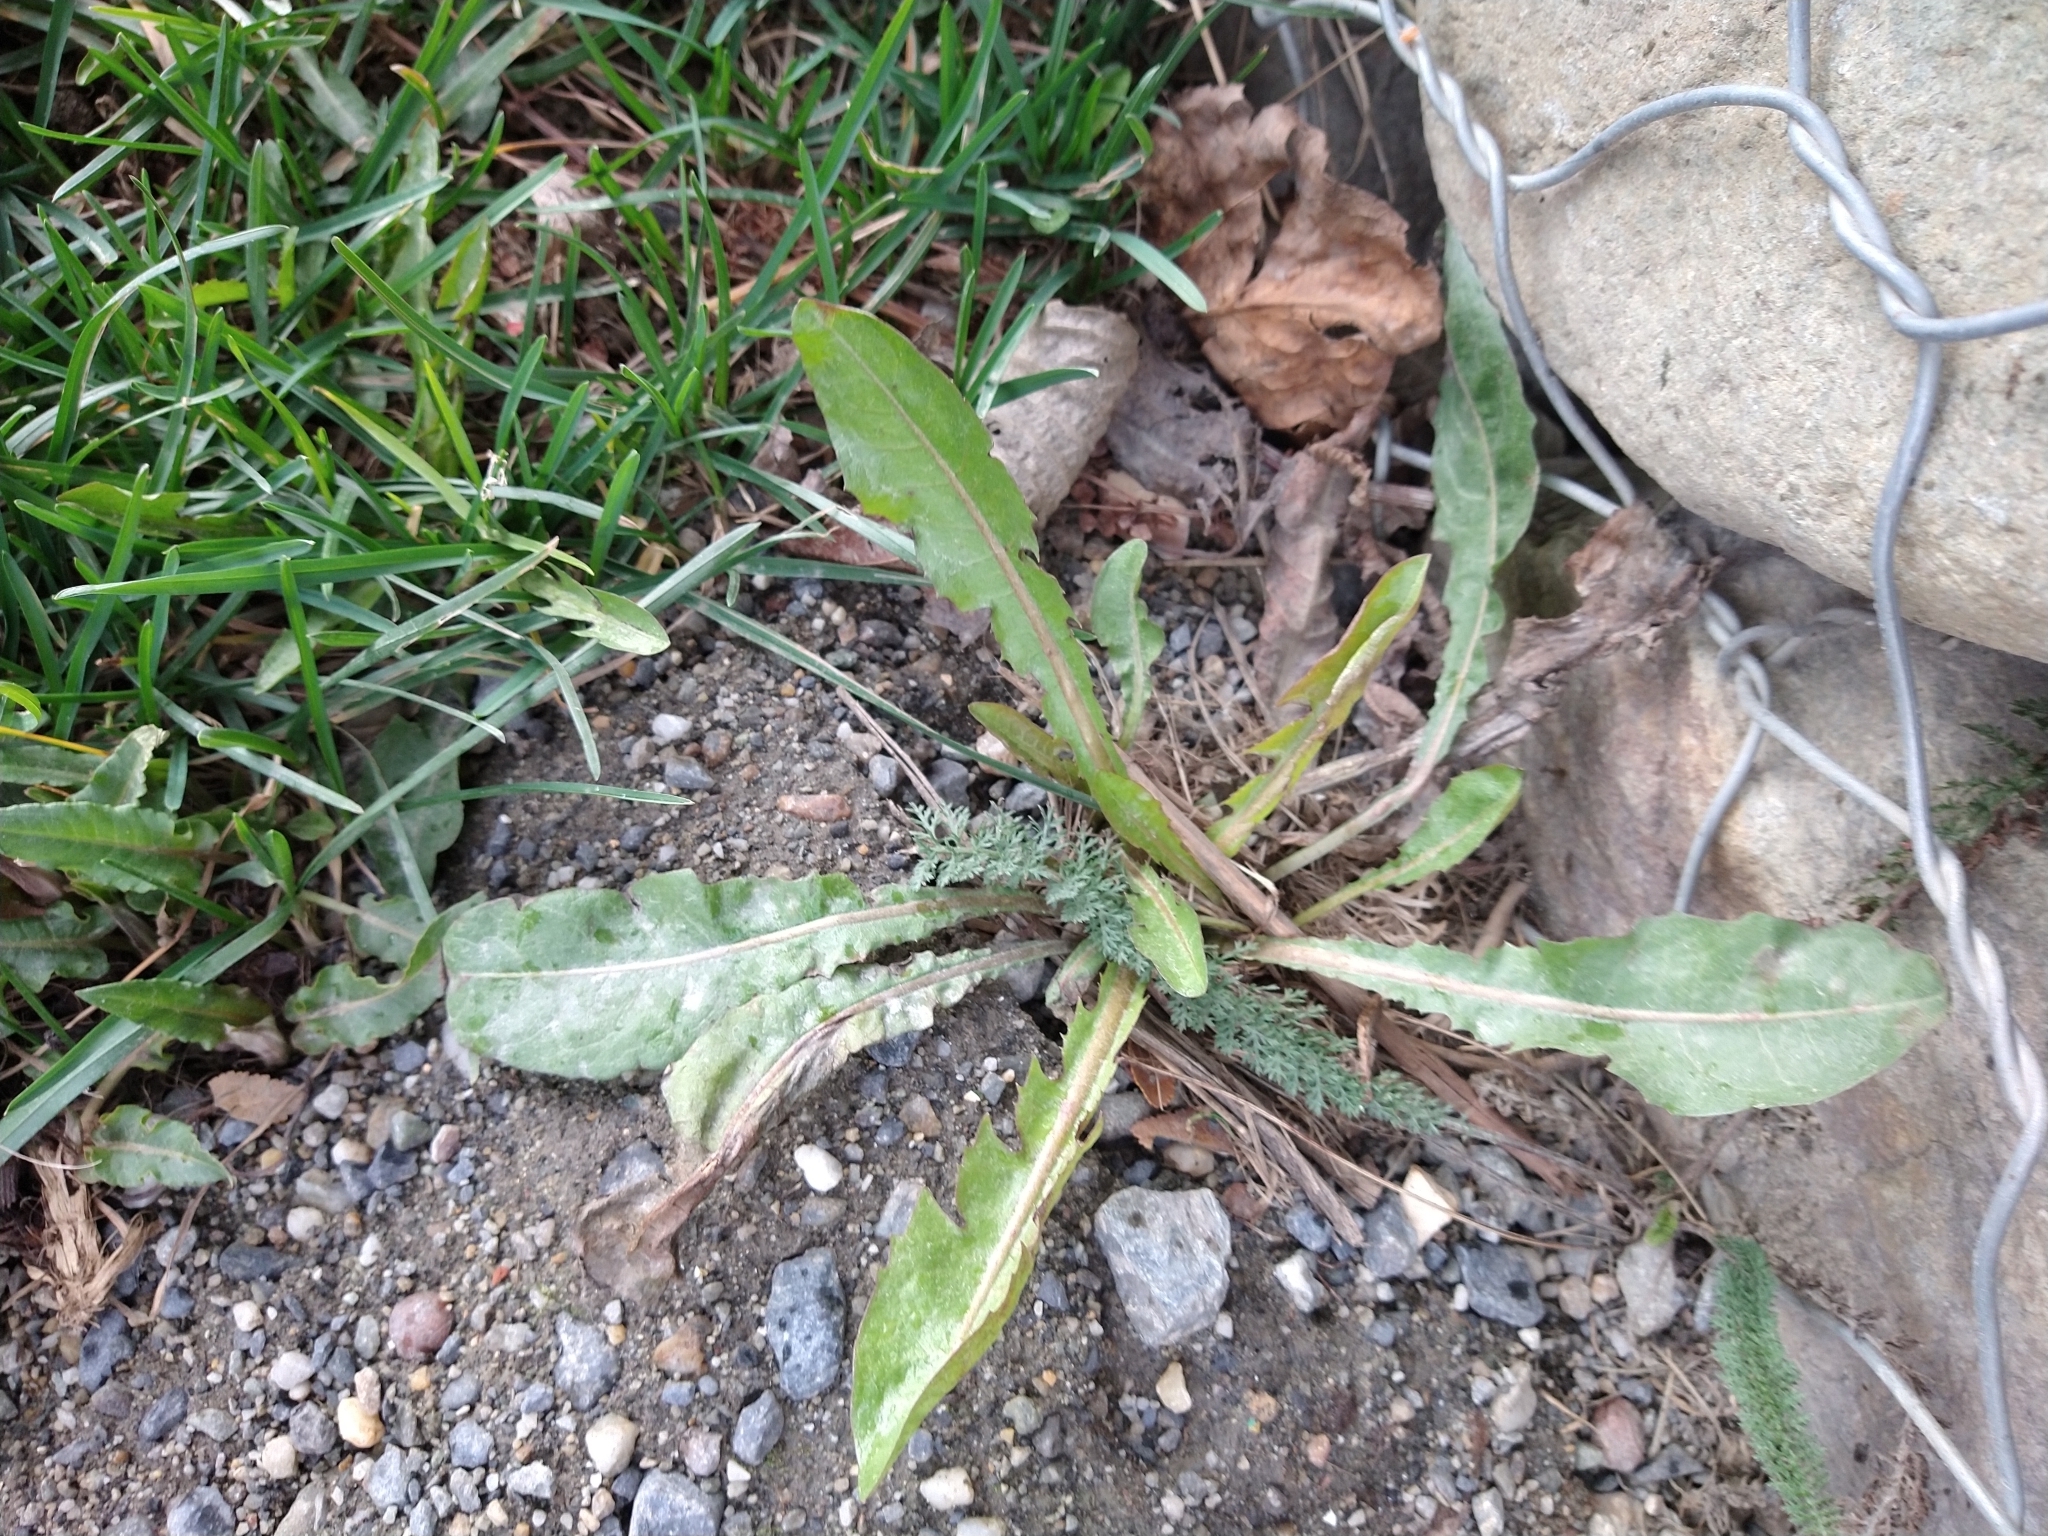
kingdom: Plantae
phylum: Tracheophyta
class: Magnoliopsida
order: Asterales
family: Asteraceae
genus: Taraxacum
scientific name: Taraxacum officinale
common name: Common dandelion
